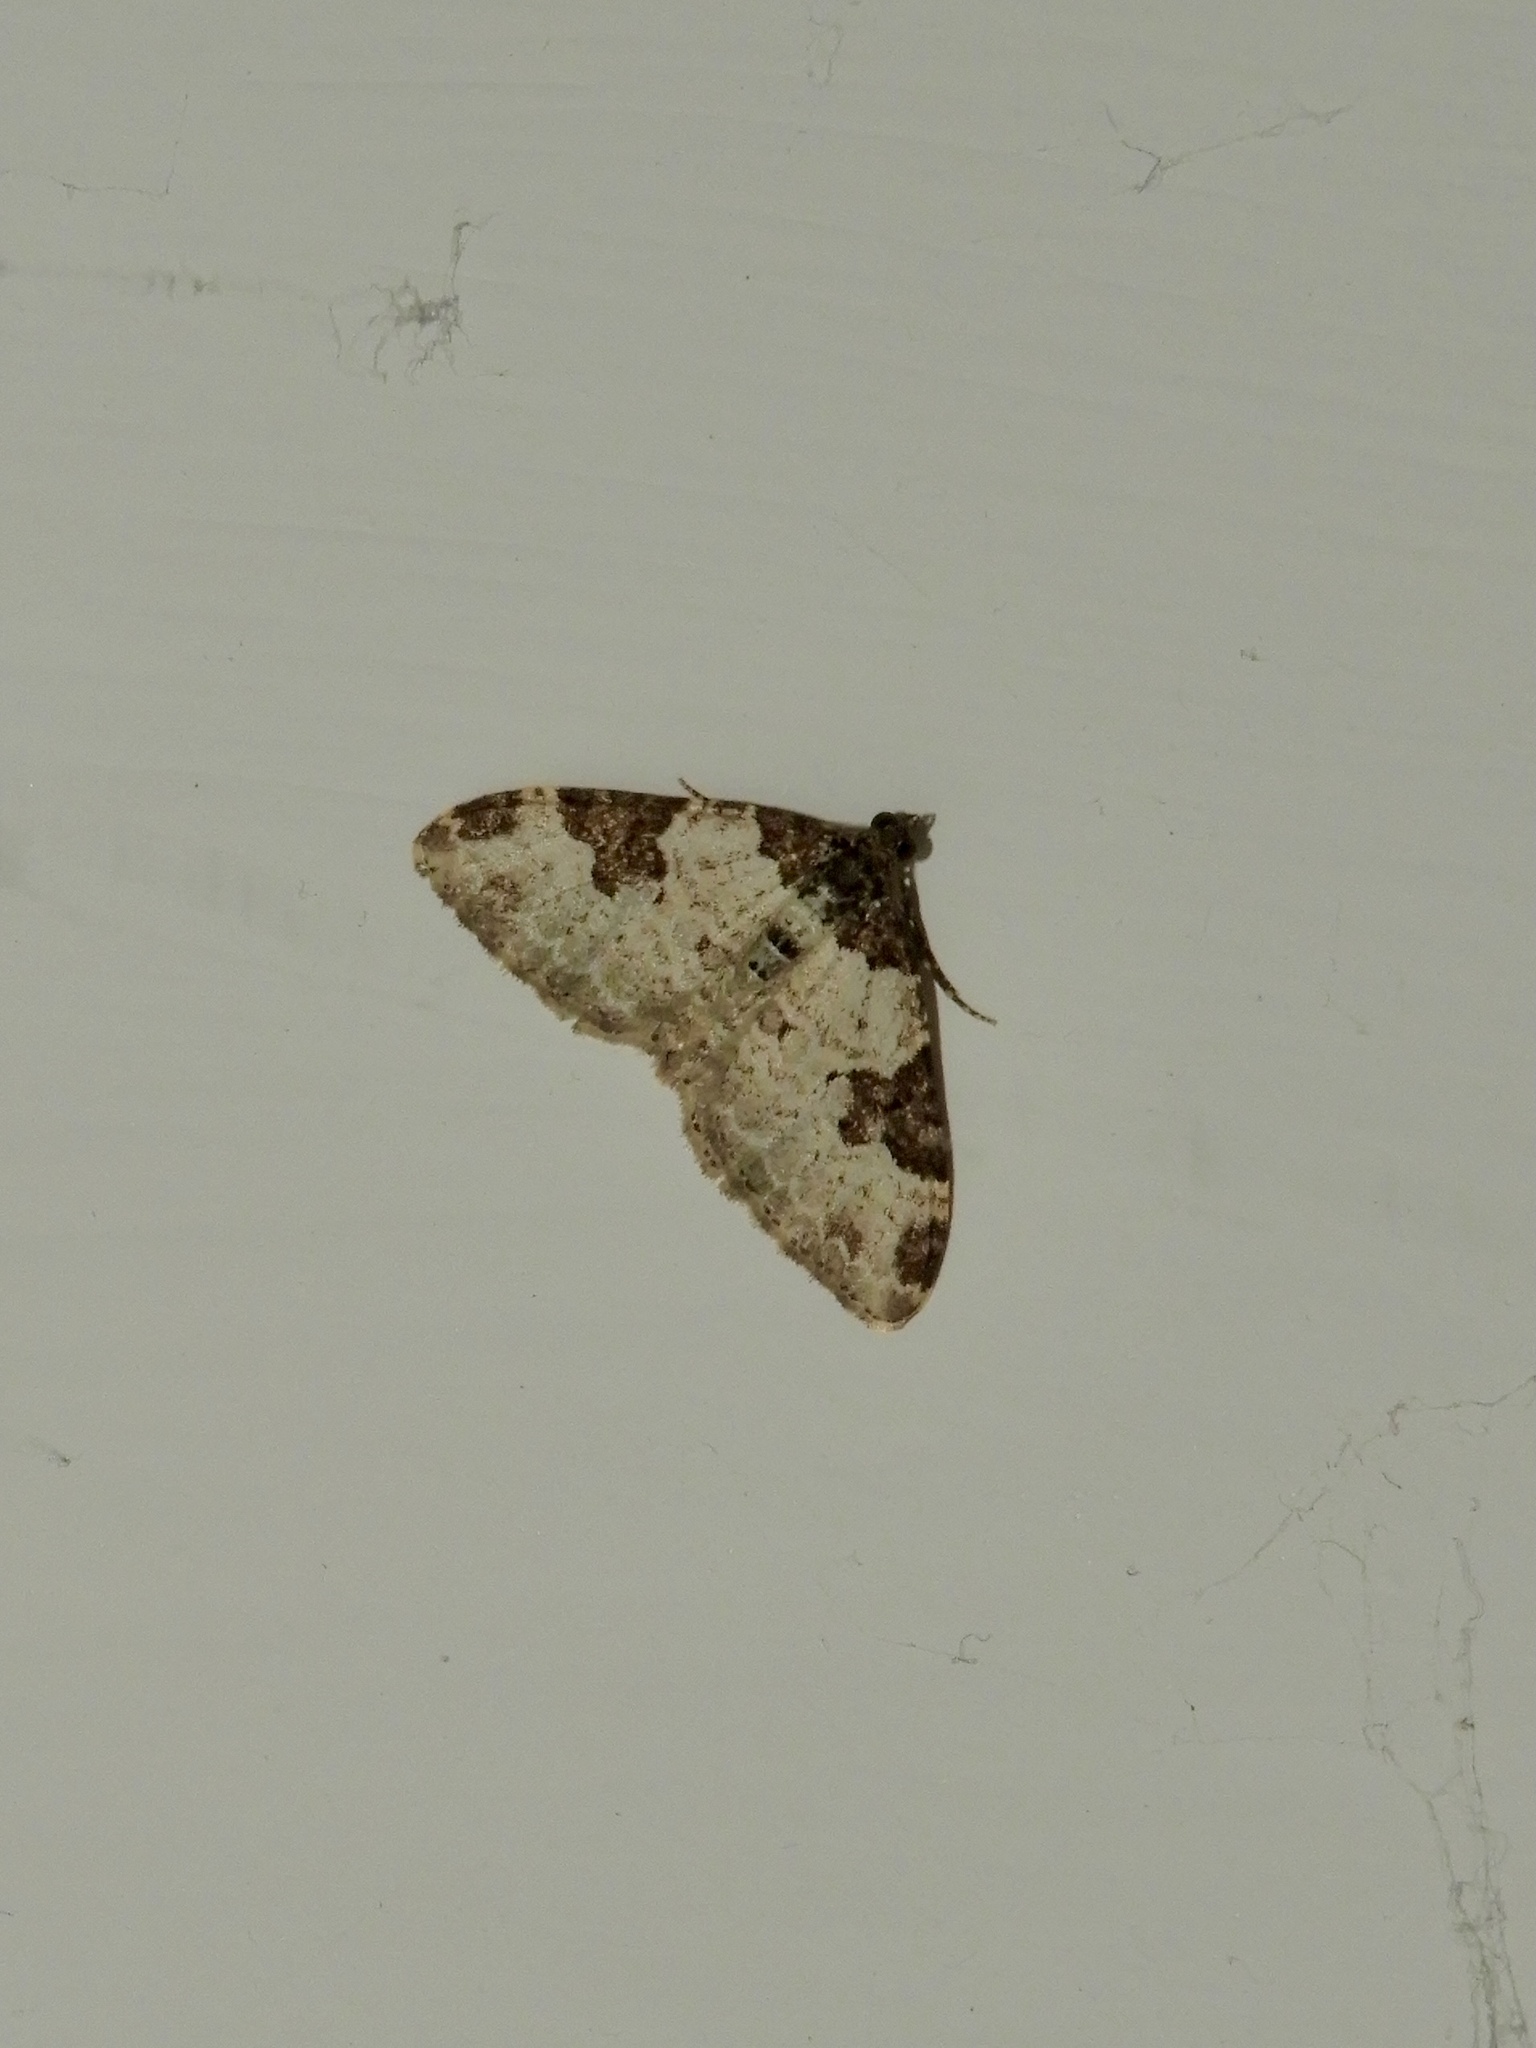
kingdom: Animalia
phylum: Arthropoda
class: Insecta
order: Lepidoptera
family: Geometridae
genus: Xanthorhoe
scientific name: Xanthorhoe fluctuata
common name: Garden carpet
